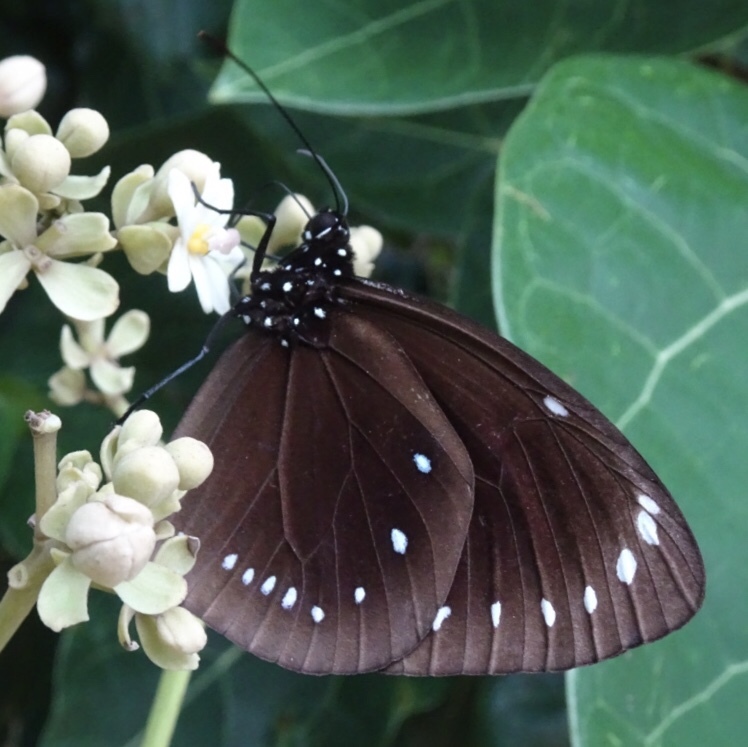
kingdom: Animalia
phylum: Arthropoda
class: Insecta
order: Lepidoptera
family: Nymphalidae
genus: Euploea
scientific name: Euploea leucostictos
